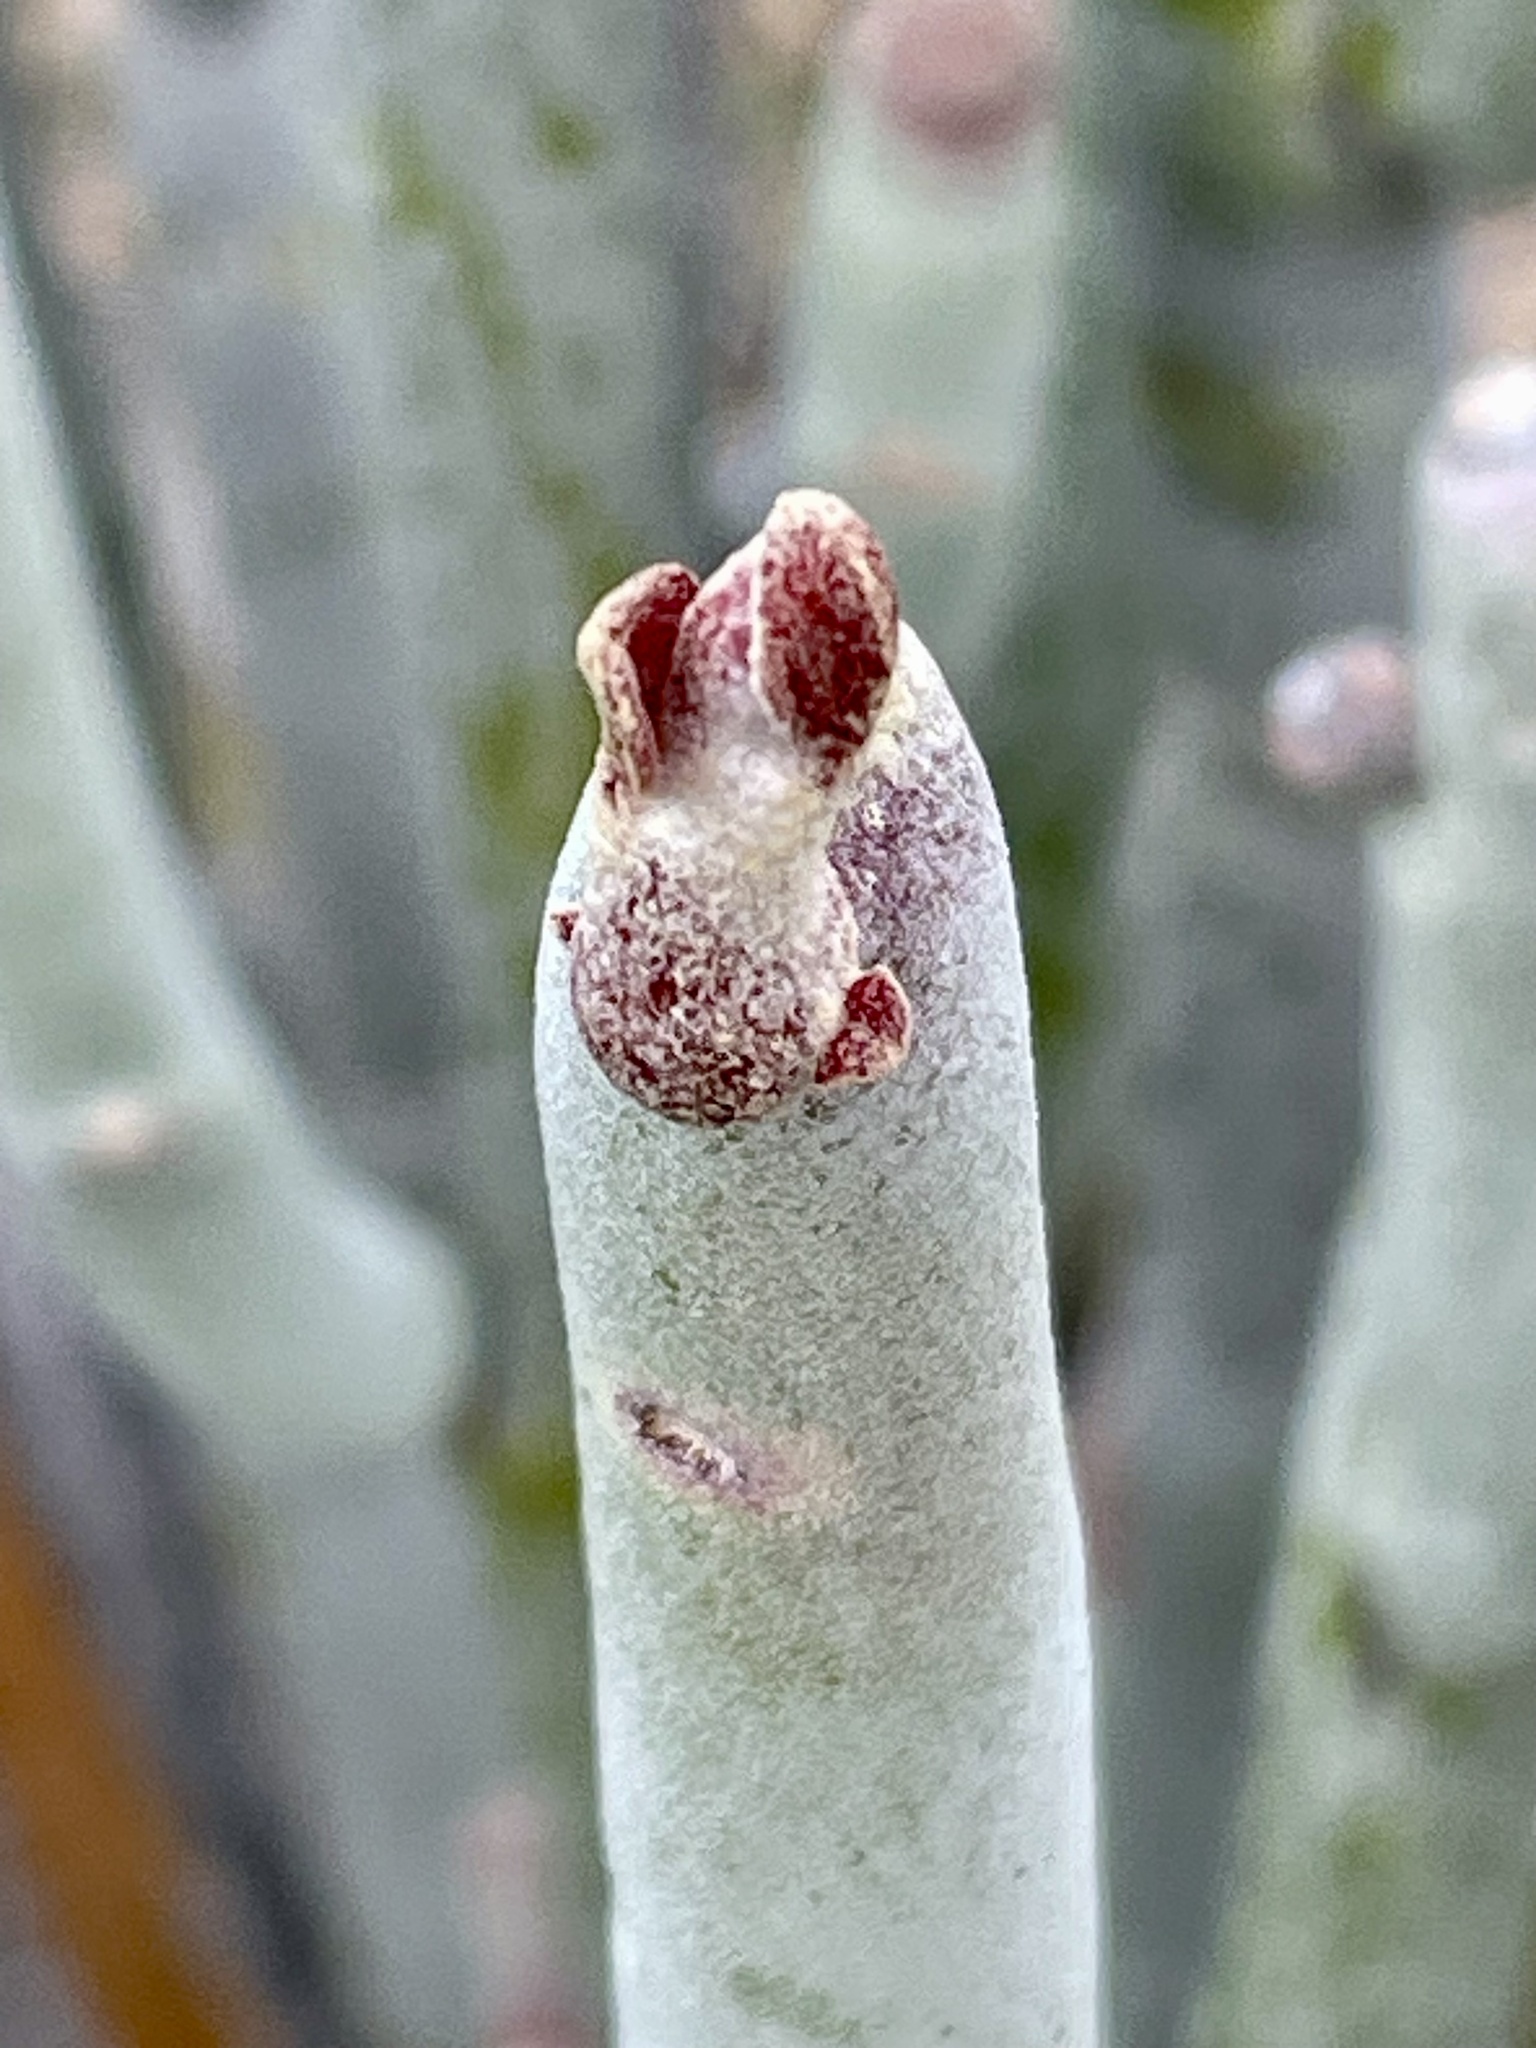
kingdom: Plantae
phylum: Tracheophyta
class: Magnoliopsida
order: Malpighiales
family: Euphorbiaceae
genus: Euphorbia
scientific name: Euphorbia lomelii
